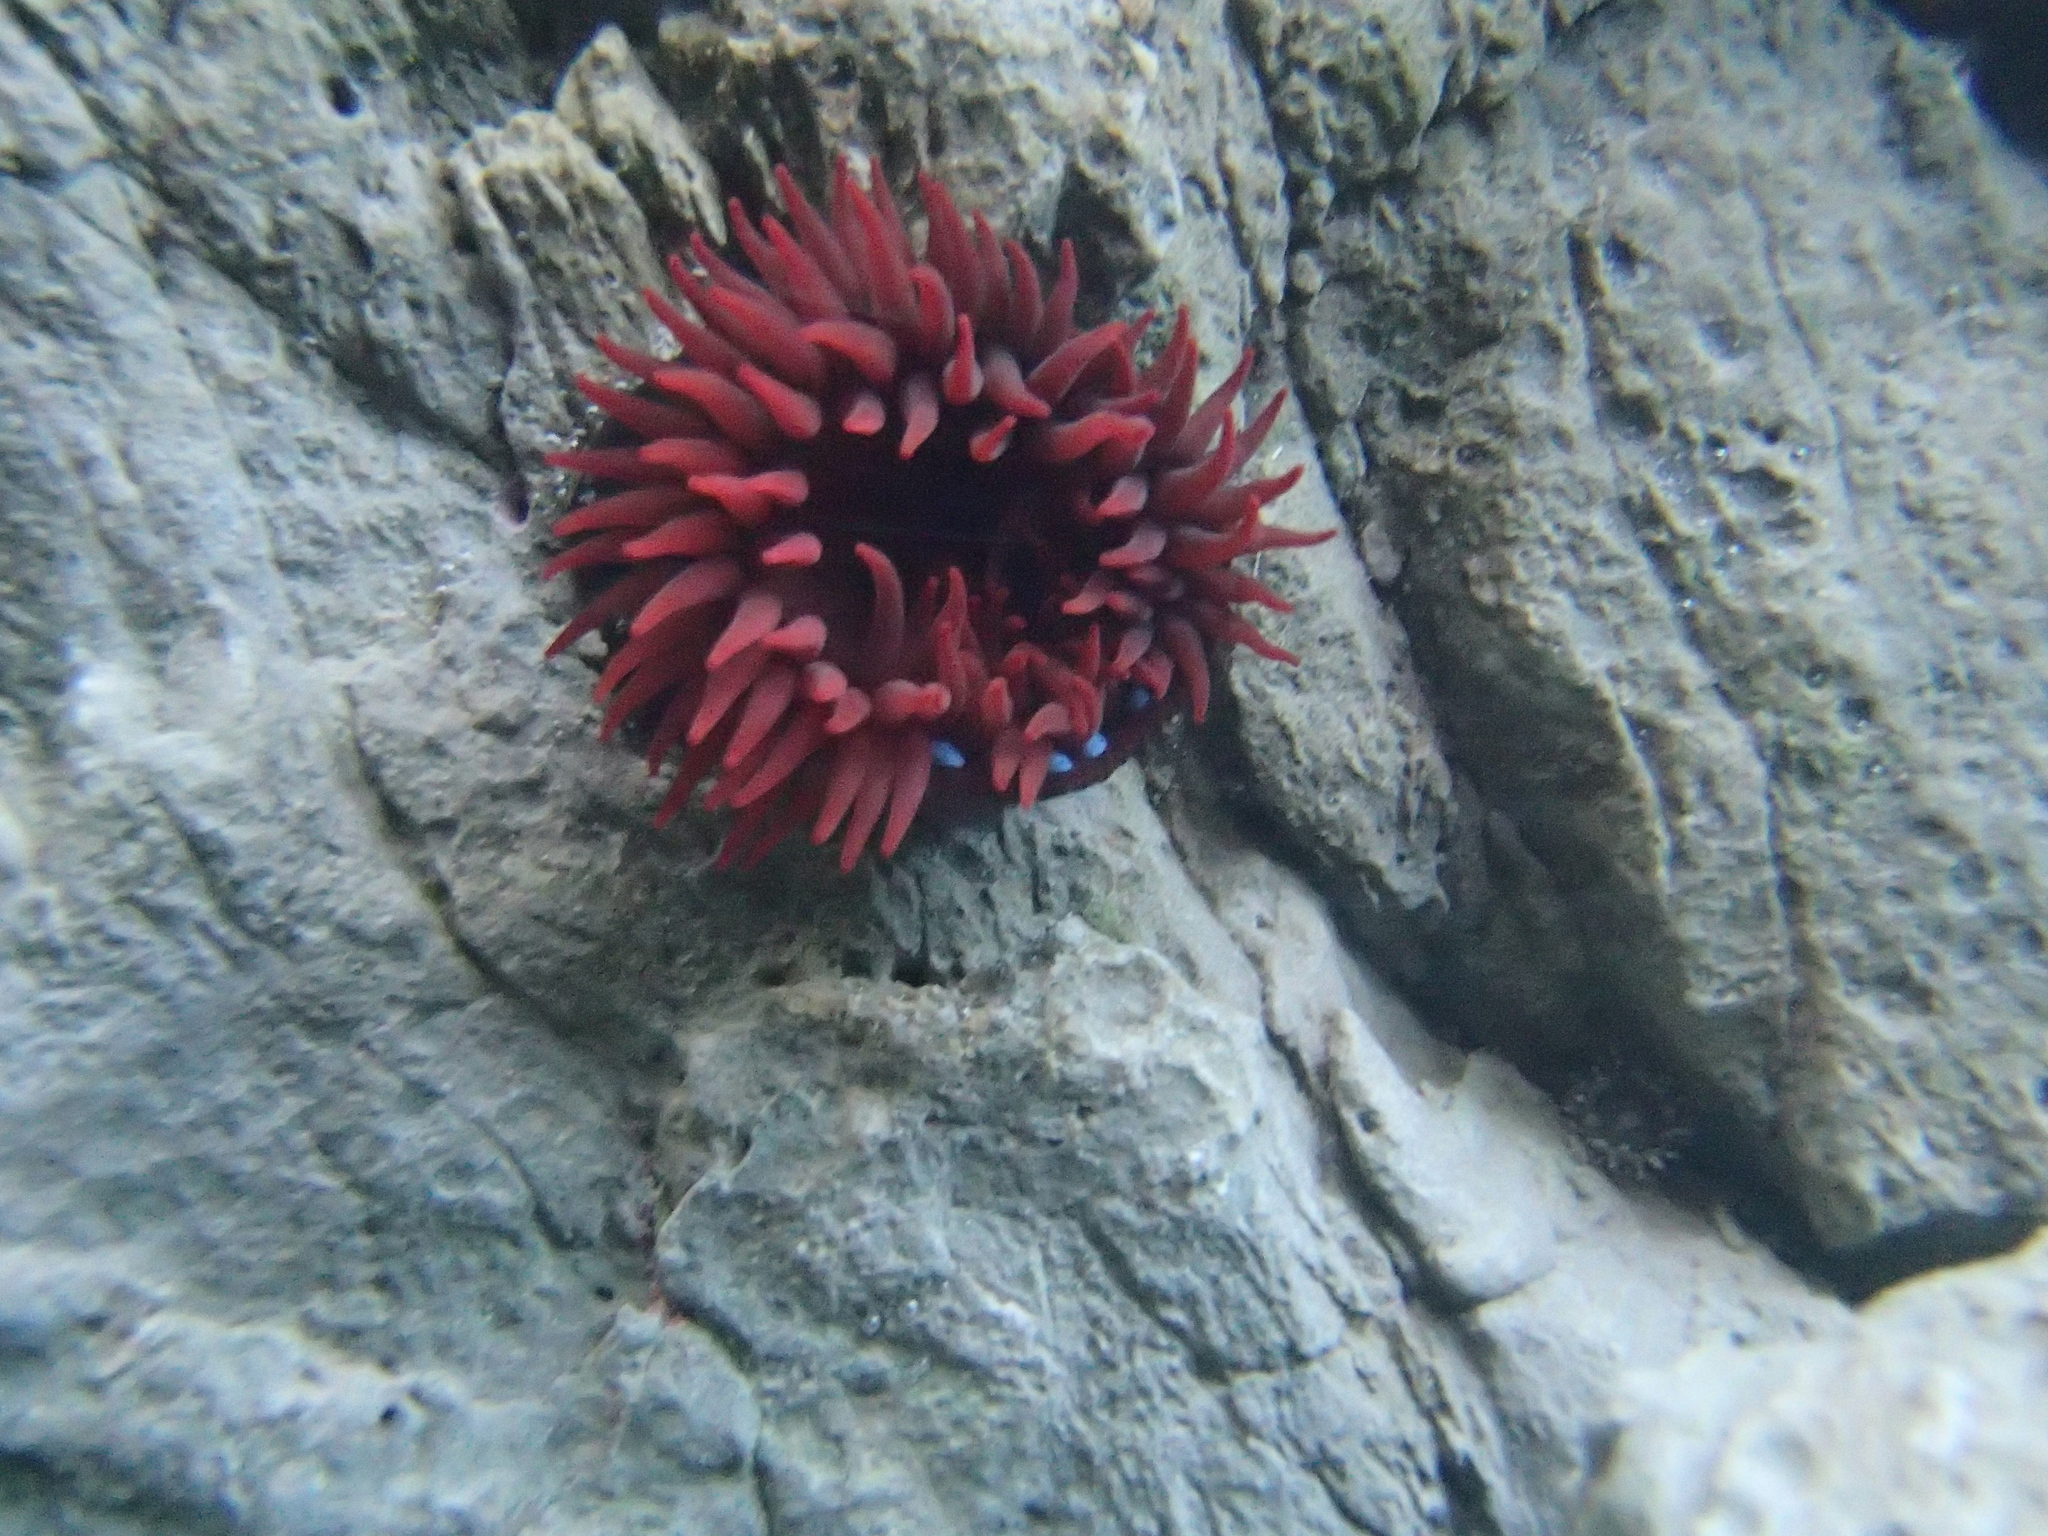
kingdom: Animalia
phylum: Cnidaria
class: Anthozoa
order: Actiniaria
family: Actiniidae
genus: Actinia
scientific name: Actinia tenebrosa
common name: Waratah anemone
